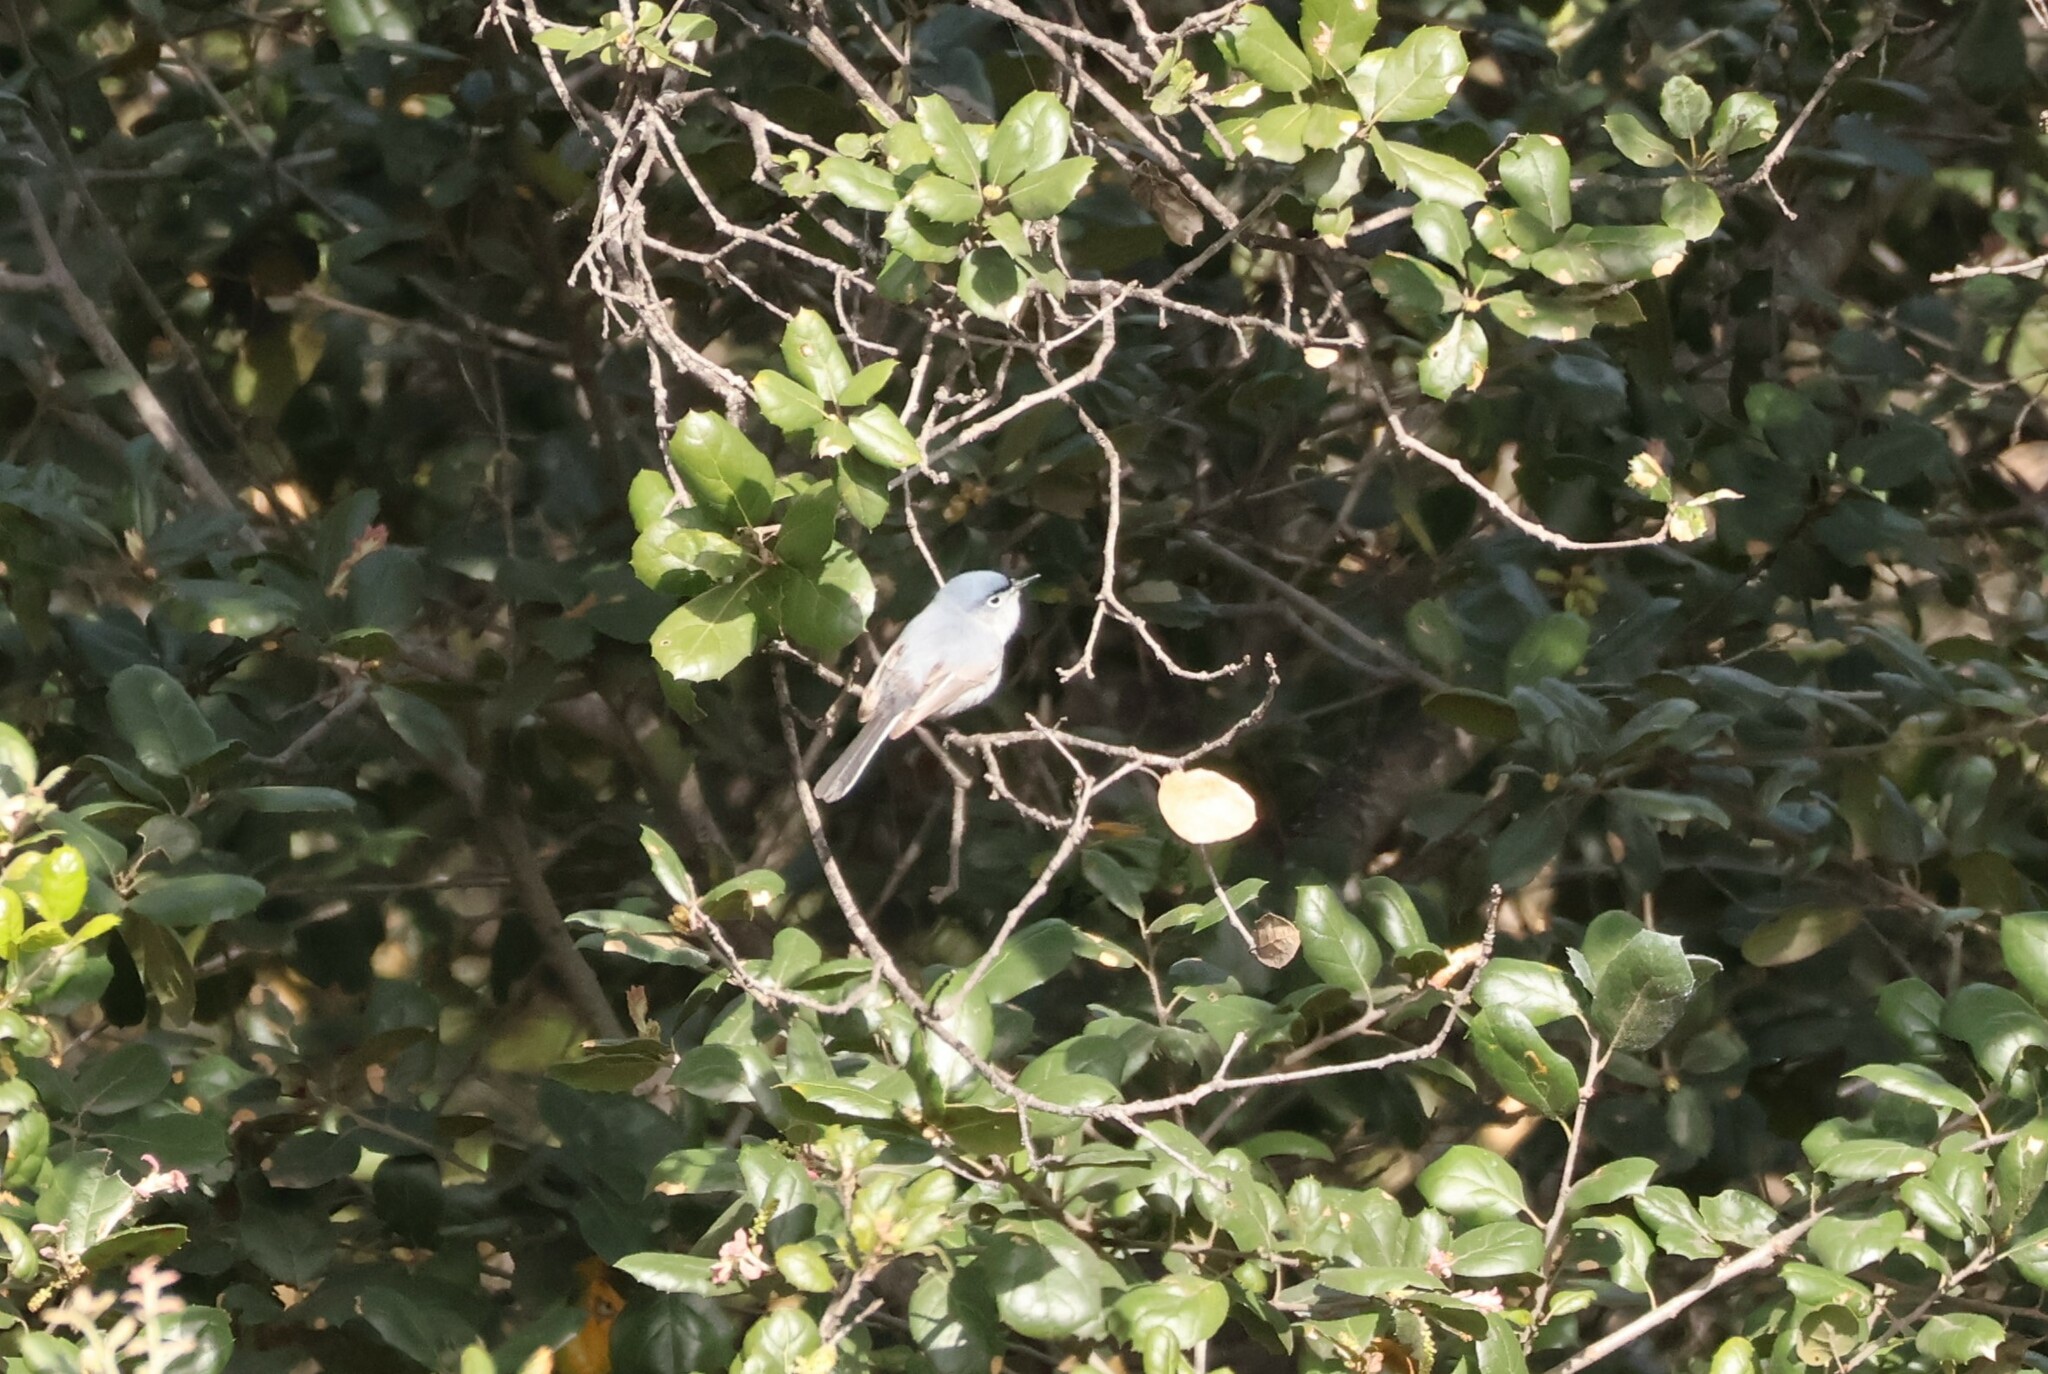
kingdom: Animalia
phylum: Chordata
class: Aves
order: Passeriformes
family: Polioptilidae
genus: Polioptila
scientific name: Polioptila caerulea
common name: Blue-gray gnatcatcher
